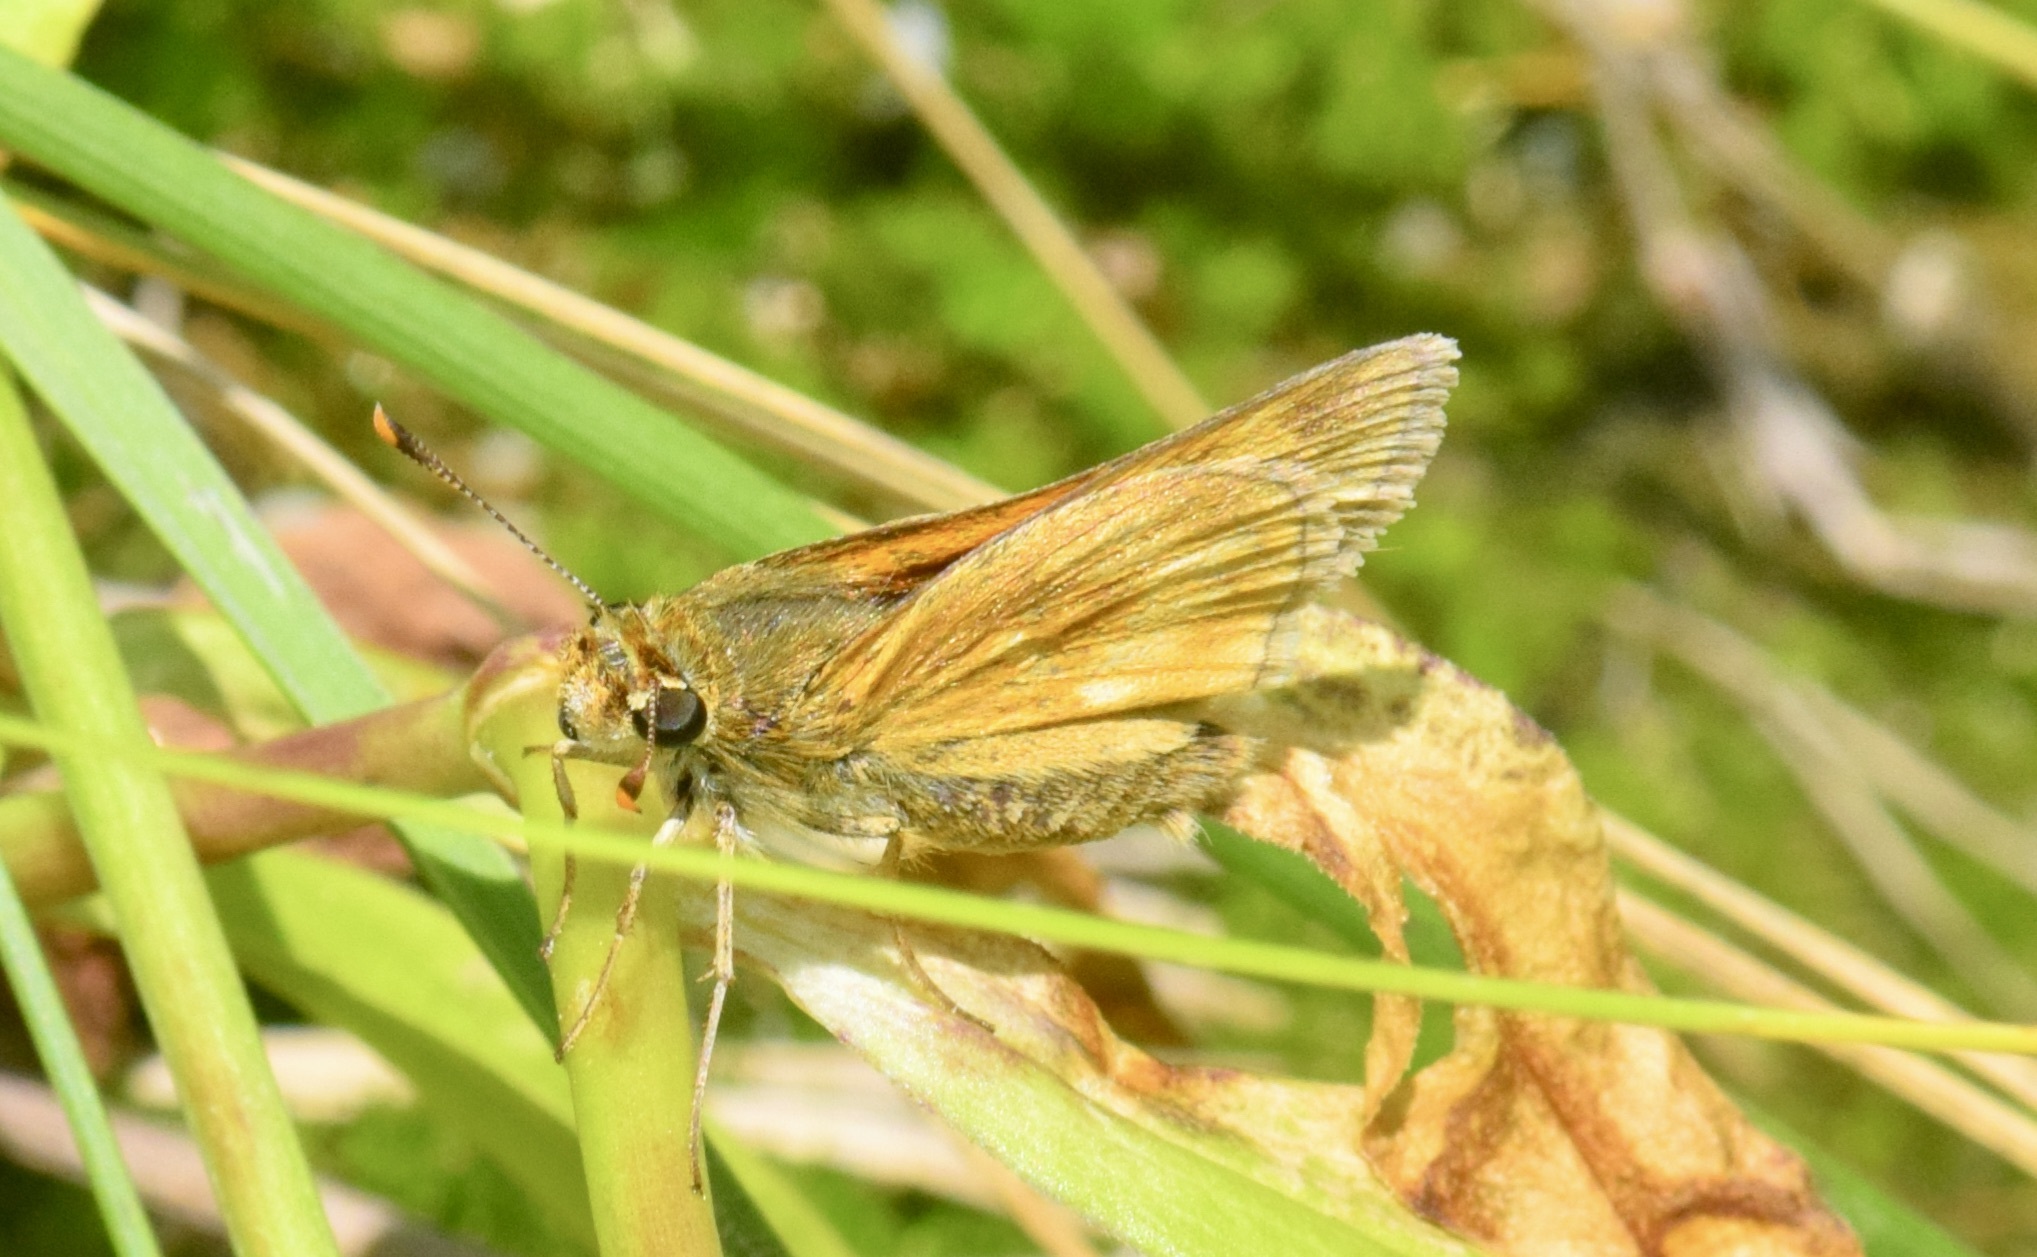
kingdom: Animalia
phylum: Arthropoda
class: Insecta
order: Lepidoptera
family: Hesperiidae
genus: Polites
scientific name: Polites mystic
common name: Long dash
